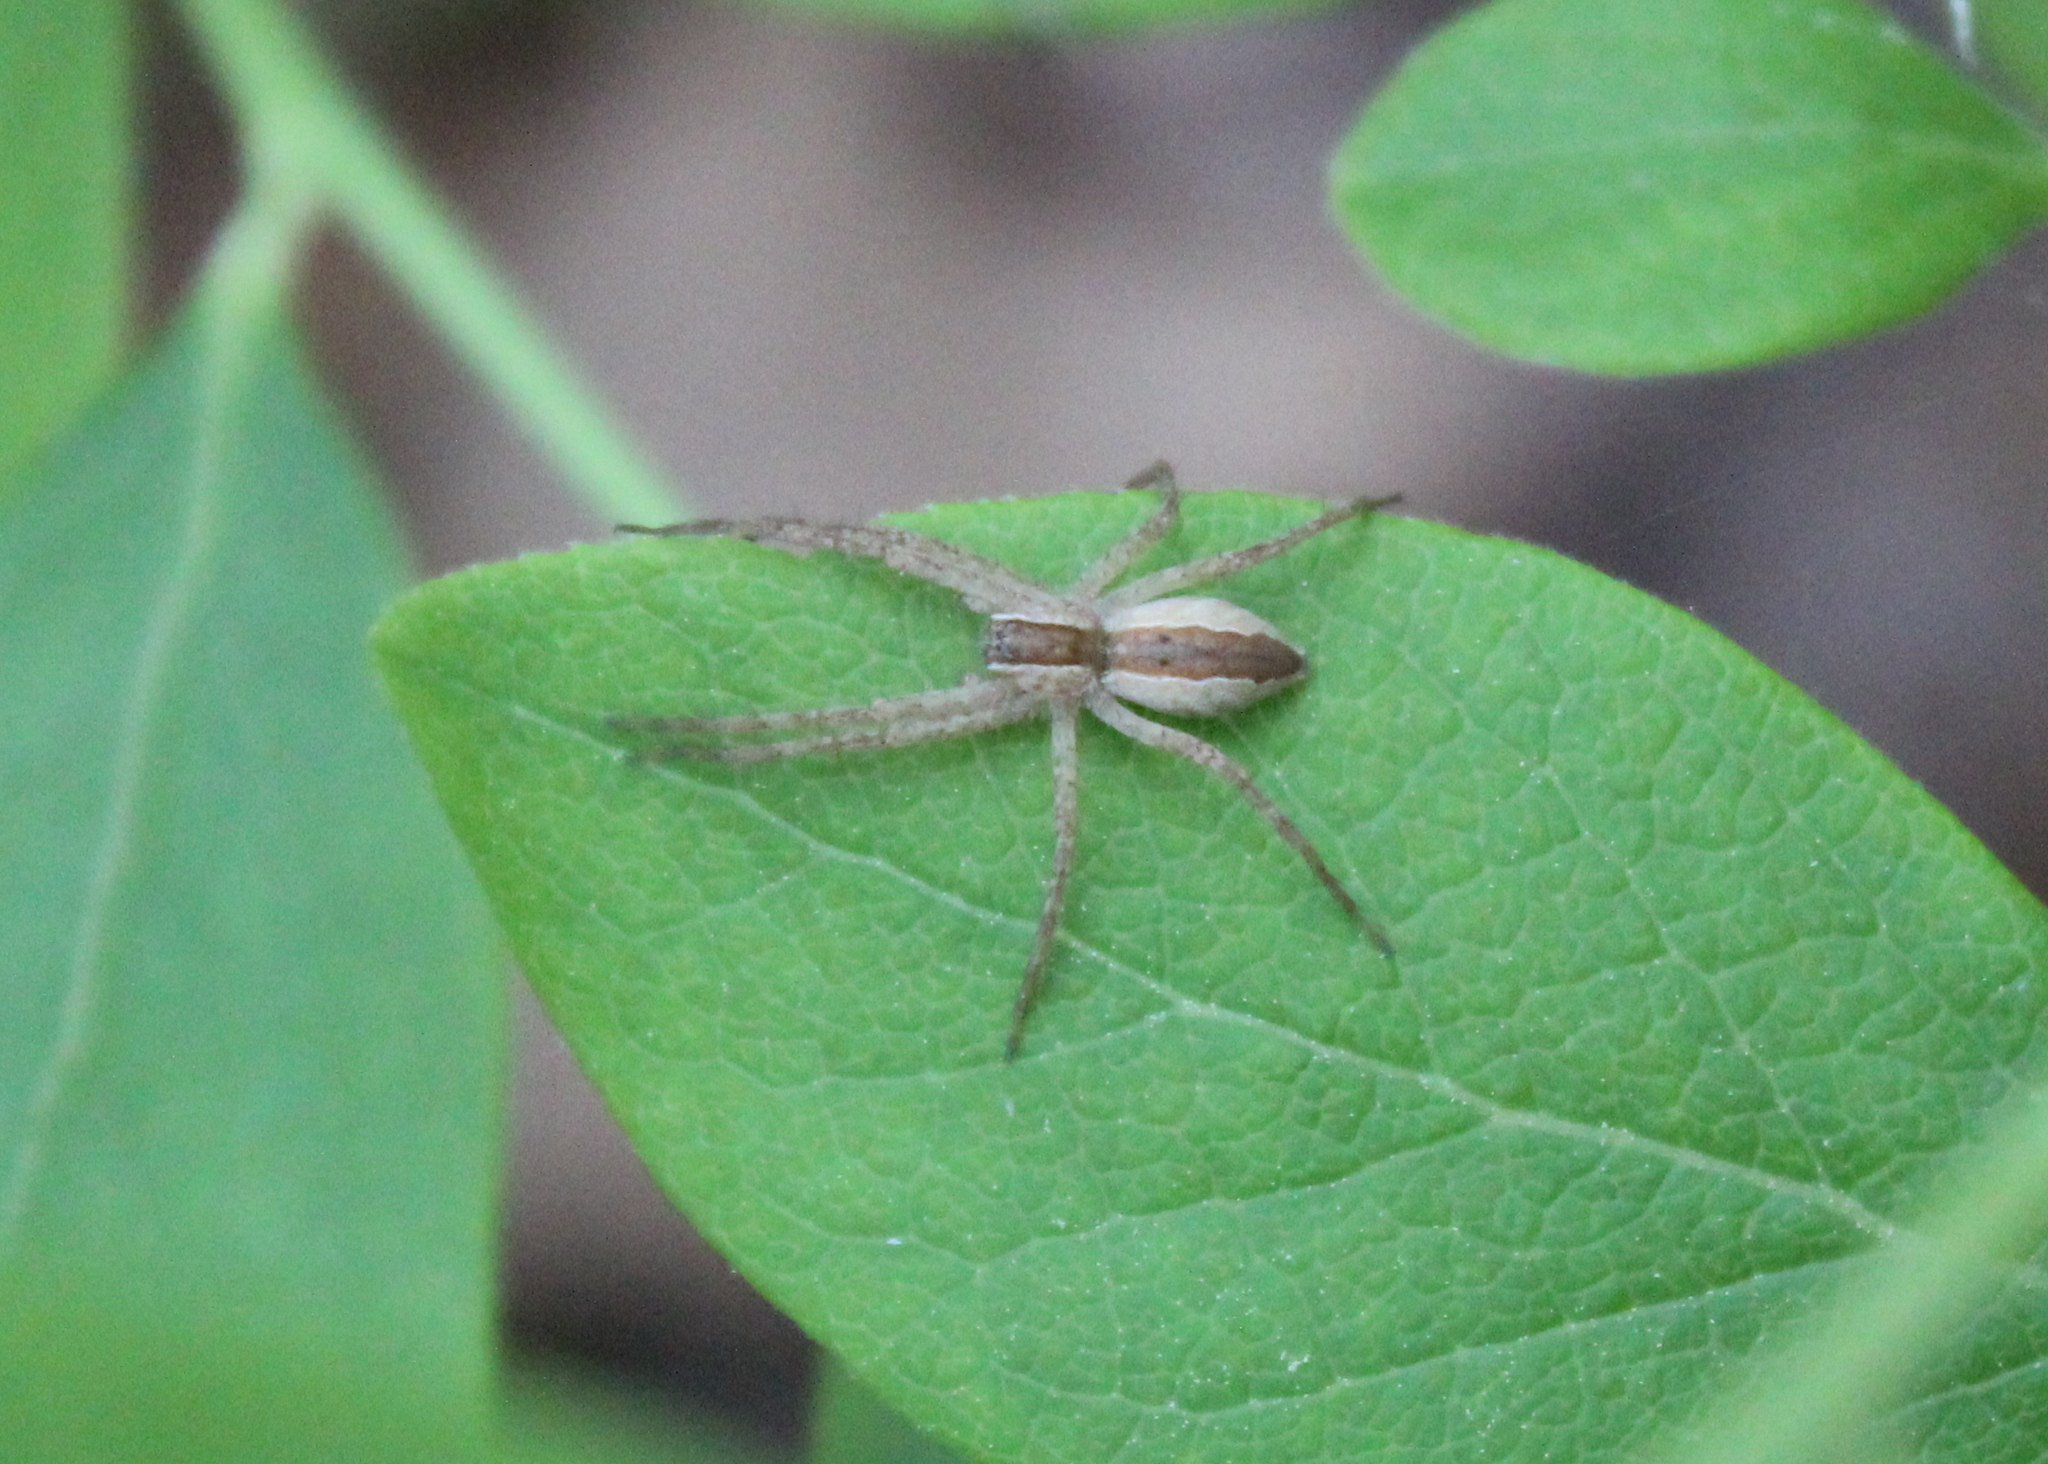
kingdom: Animalia
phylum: Arthropoda
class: Arachnida
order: Araneae
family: Pisauridae
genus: Pisaurina
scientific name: Pisaurina mira
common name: American nursery web spider
